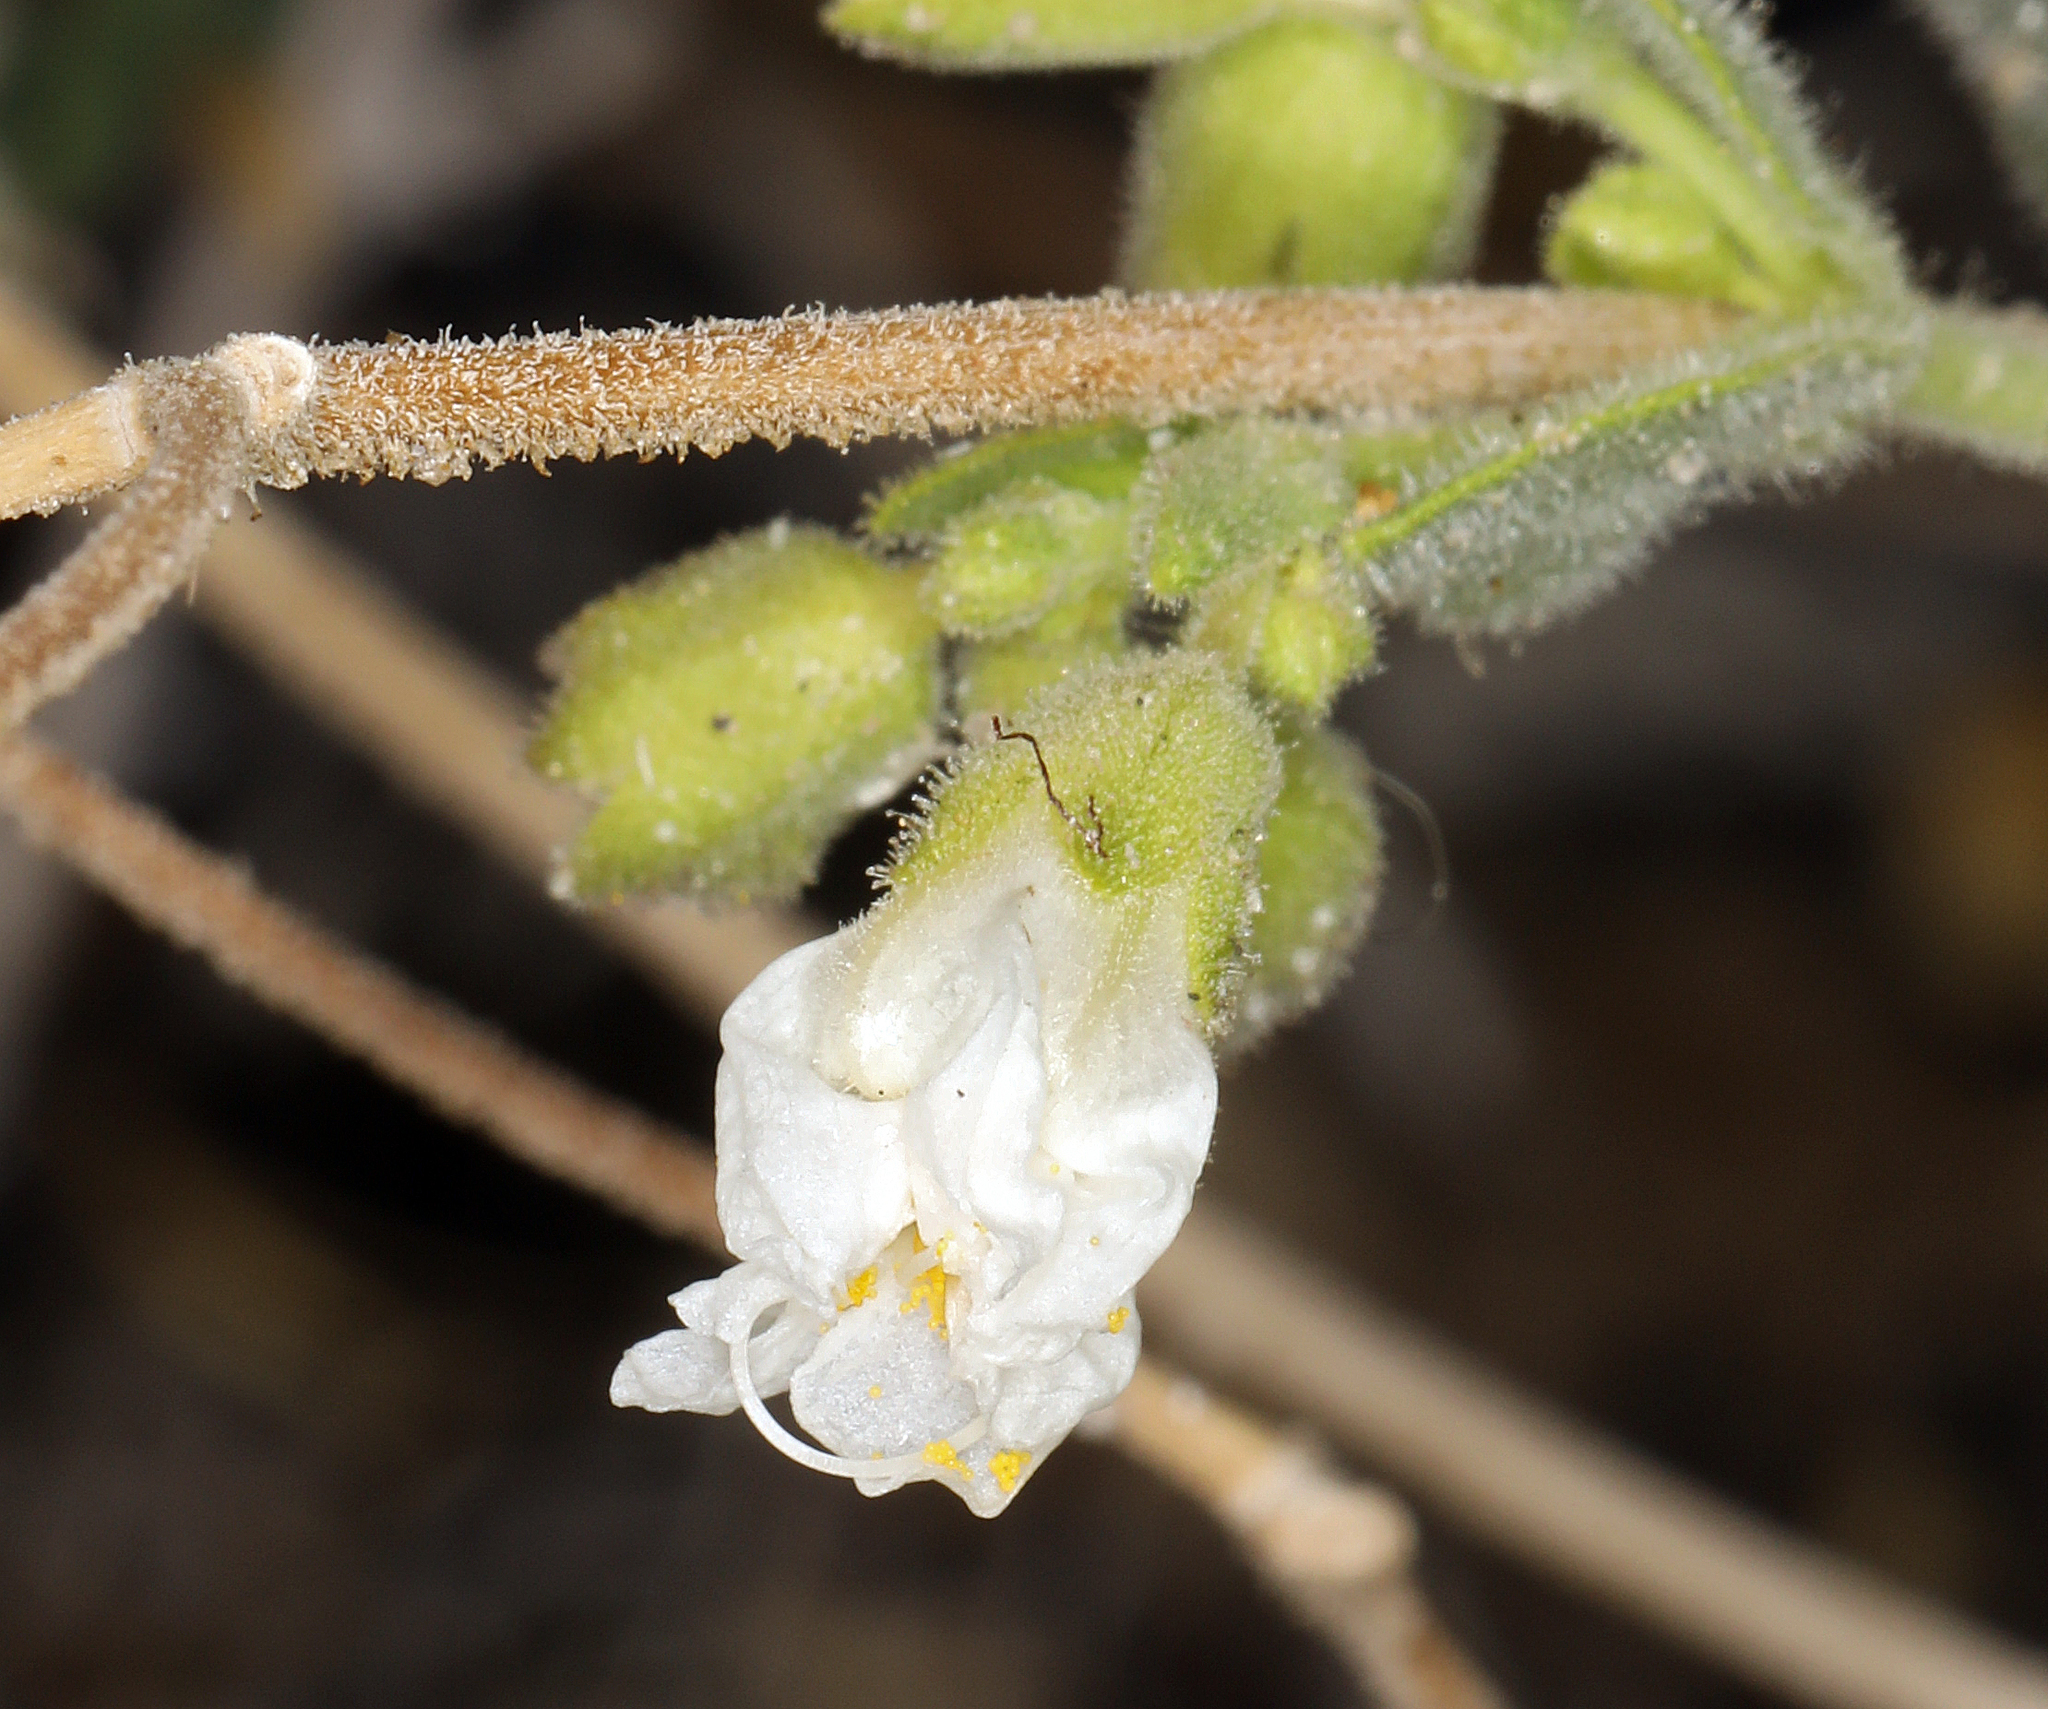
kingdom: Plantae
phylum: Tracheophyta
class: Magnoliopsida
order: Caryophyllales
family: Nyctaginaceae
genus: Mirabilis
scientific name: Mirabilis laevis
